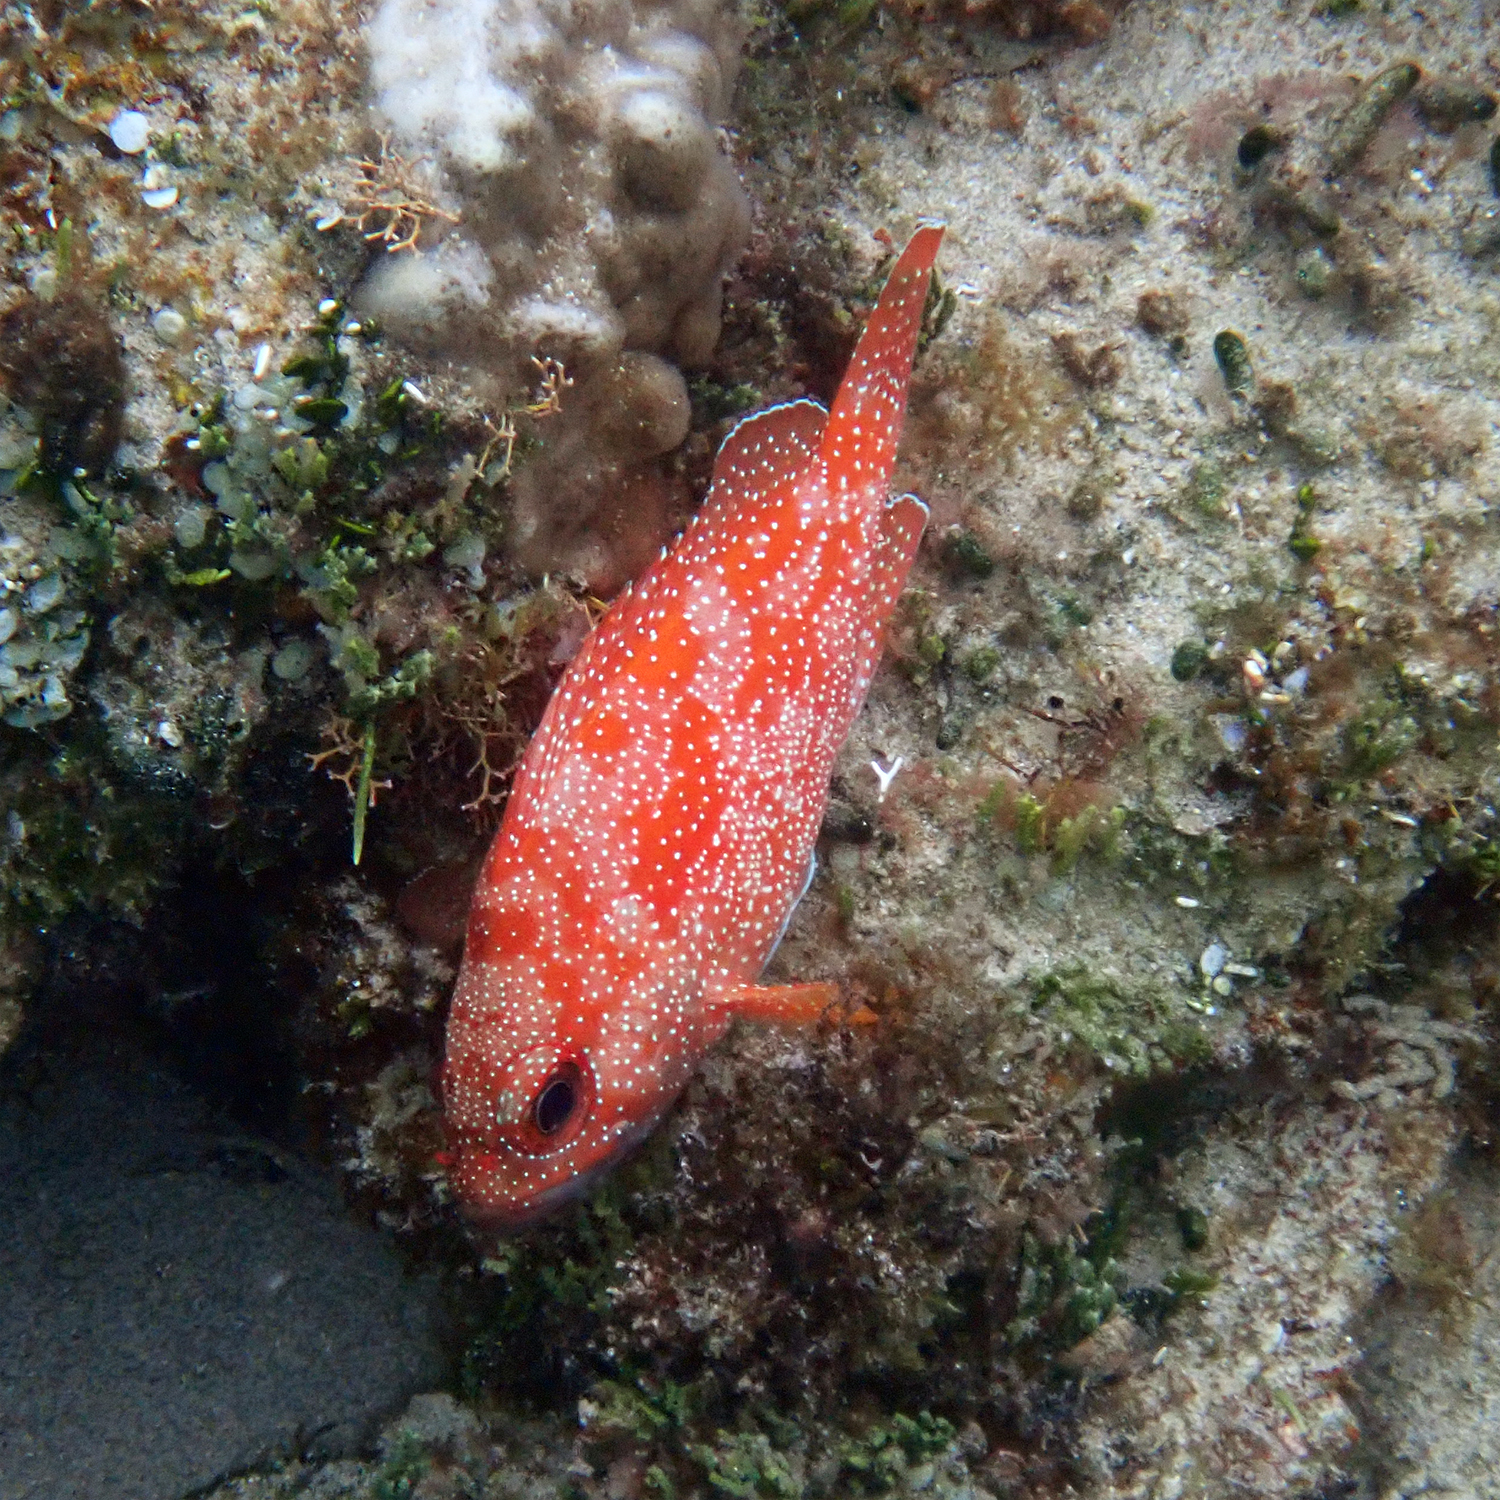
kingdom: Animalia
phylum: Chordata
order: Perciformes
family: Serranidae
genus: Trachypoma
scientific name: Trachypoma macracanthus
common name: Toadstool grouper
